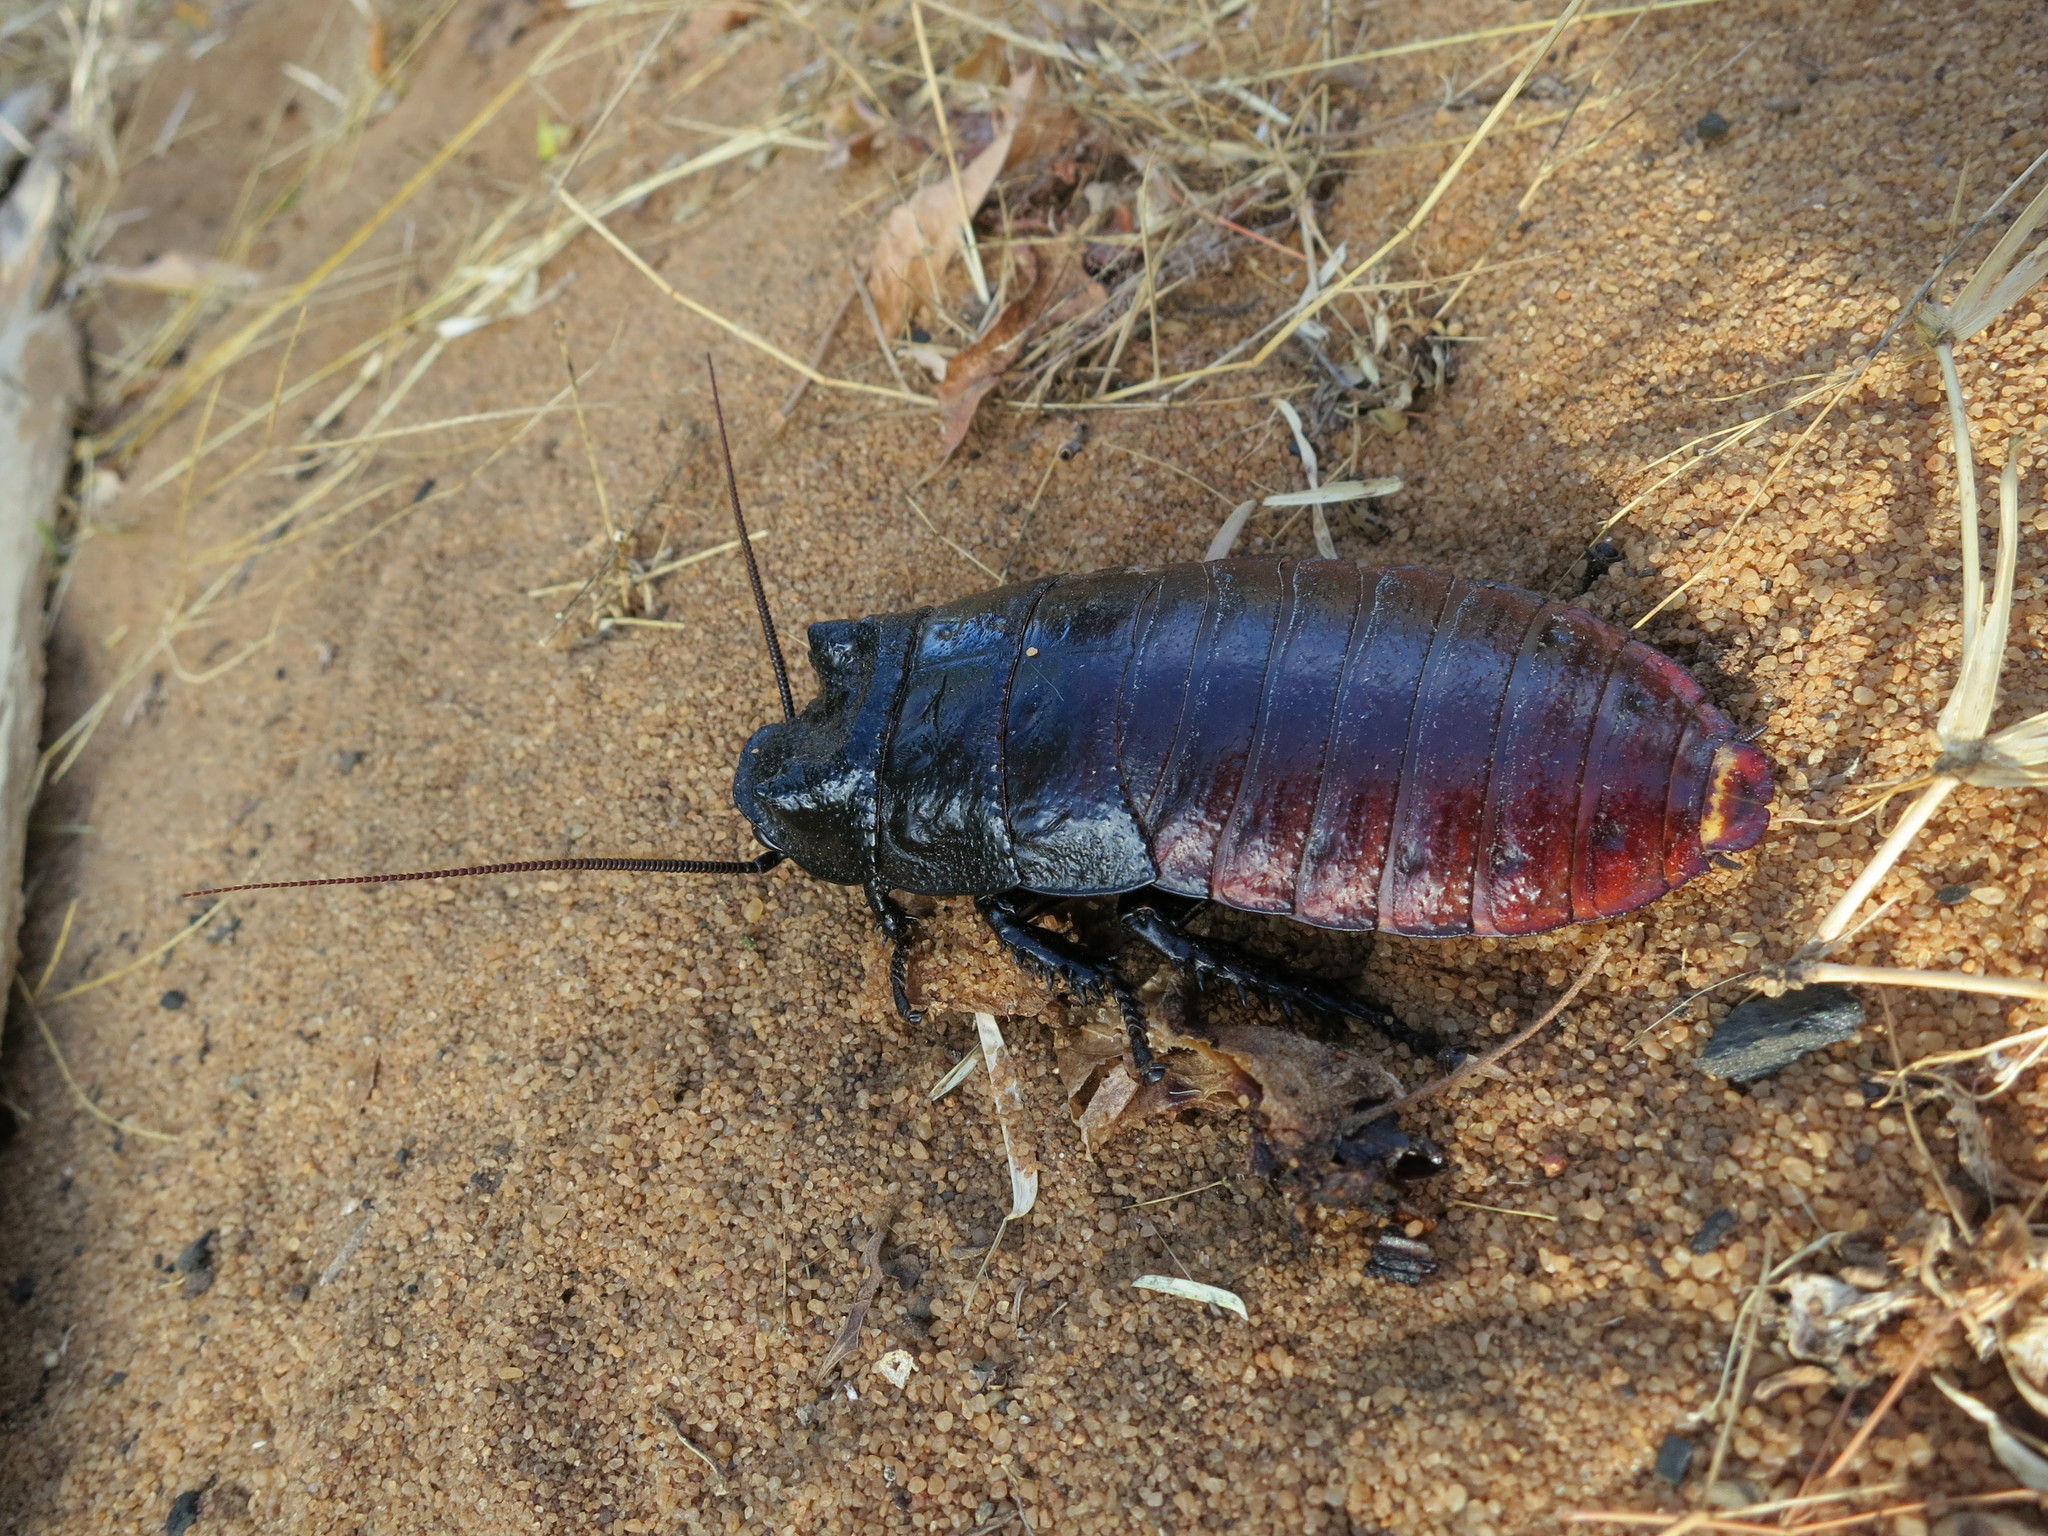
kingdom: Animalia
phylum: Arthropoda
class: Insecta
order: Blattodea
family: Blaberidae
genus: Gromphadorhina
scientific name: Gromphadorhina grandidieri
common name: Grandidier's giant madagascan hissing cockroach
